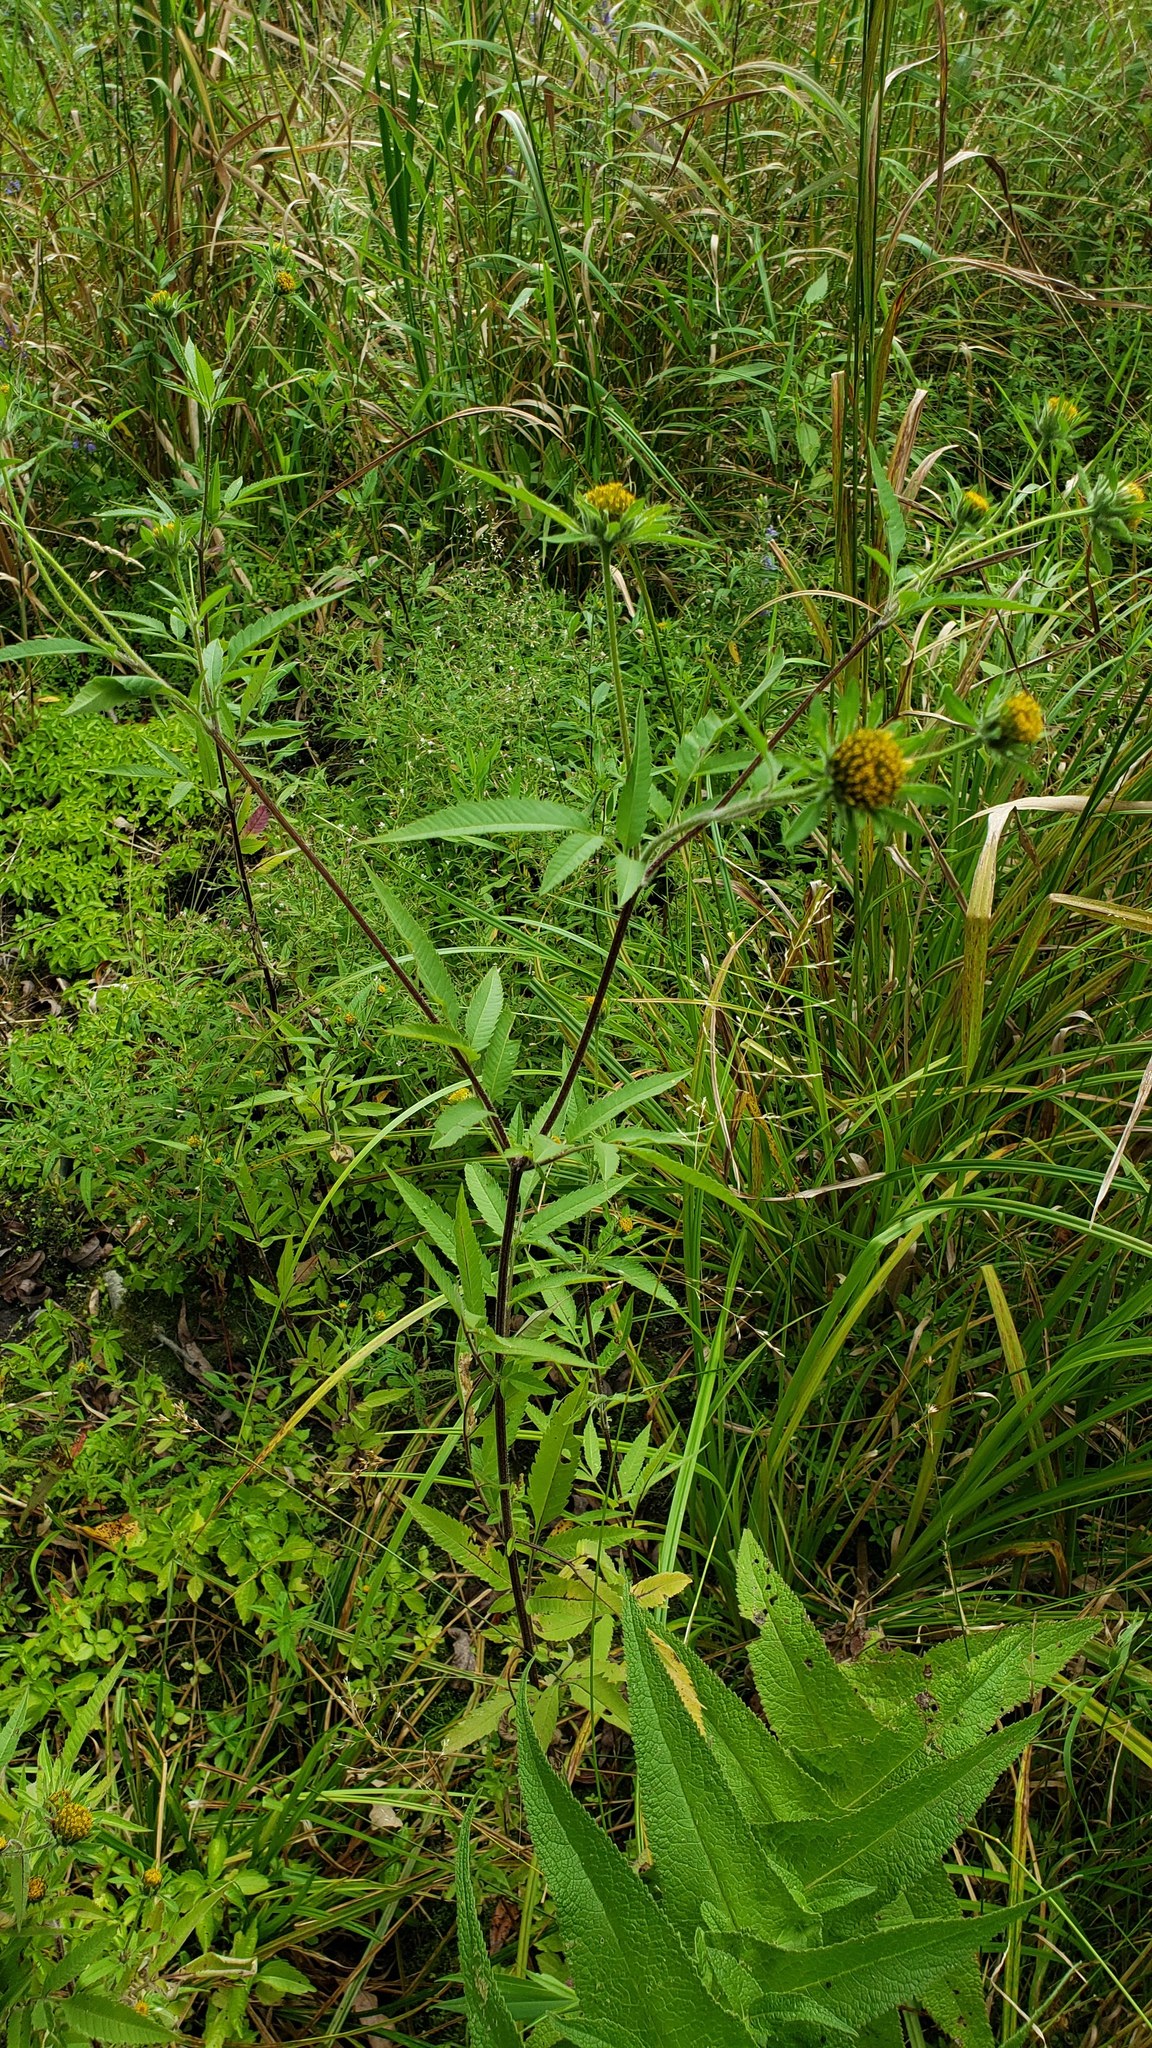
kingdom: Plantae
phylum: Tracheophyta
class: Magnoliopsida
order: Asterales
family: Asteraceae
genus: Bidens
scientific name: Bidens vulgata
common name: Tall beggarticks
